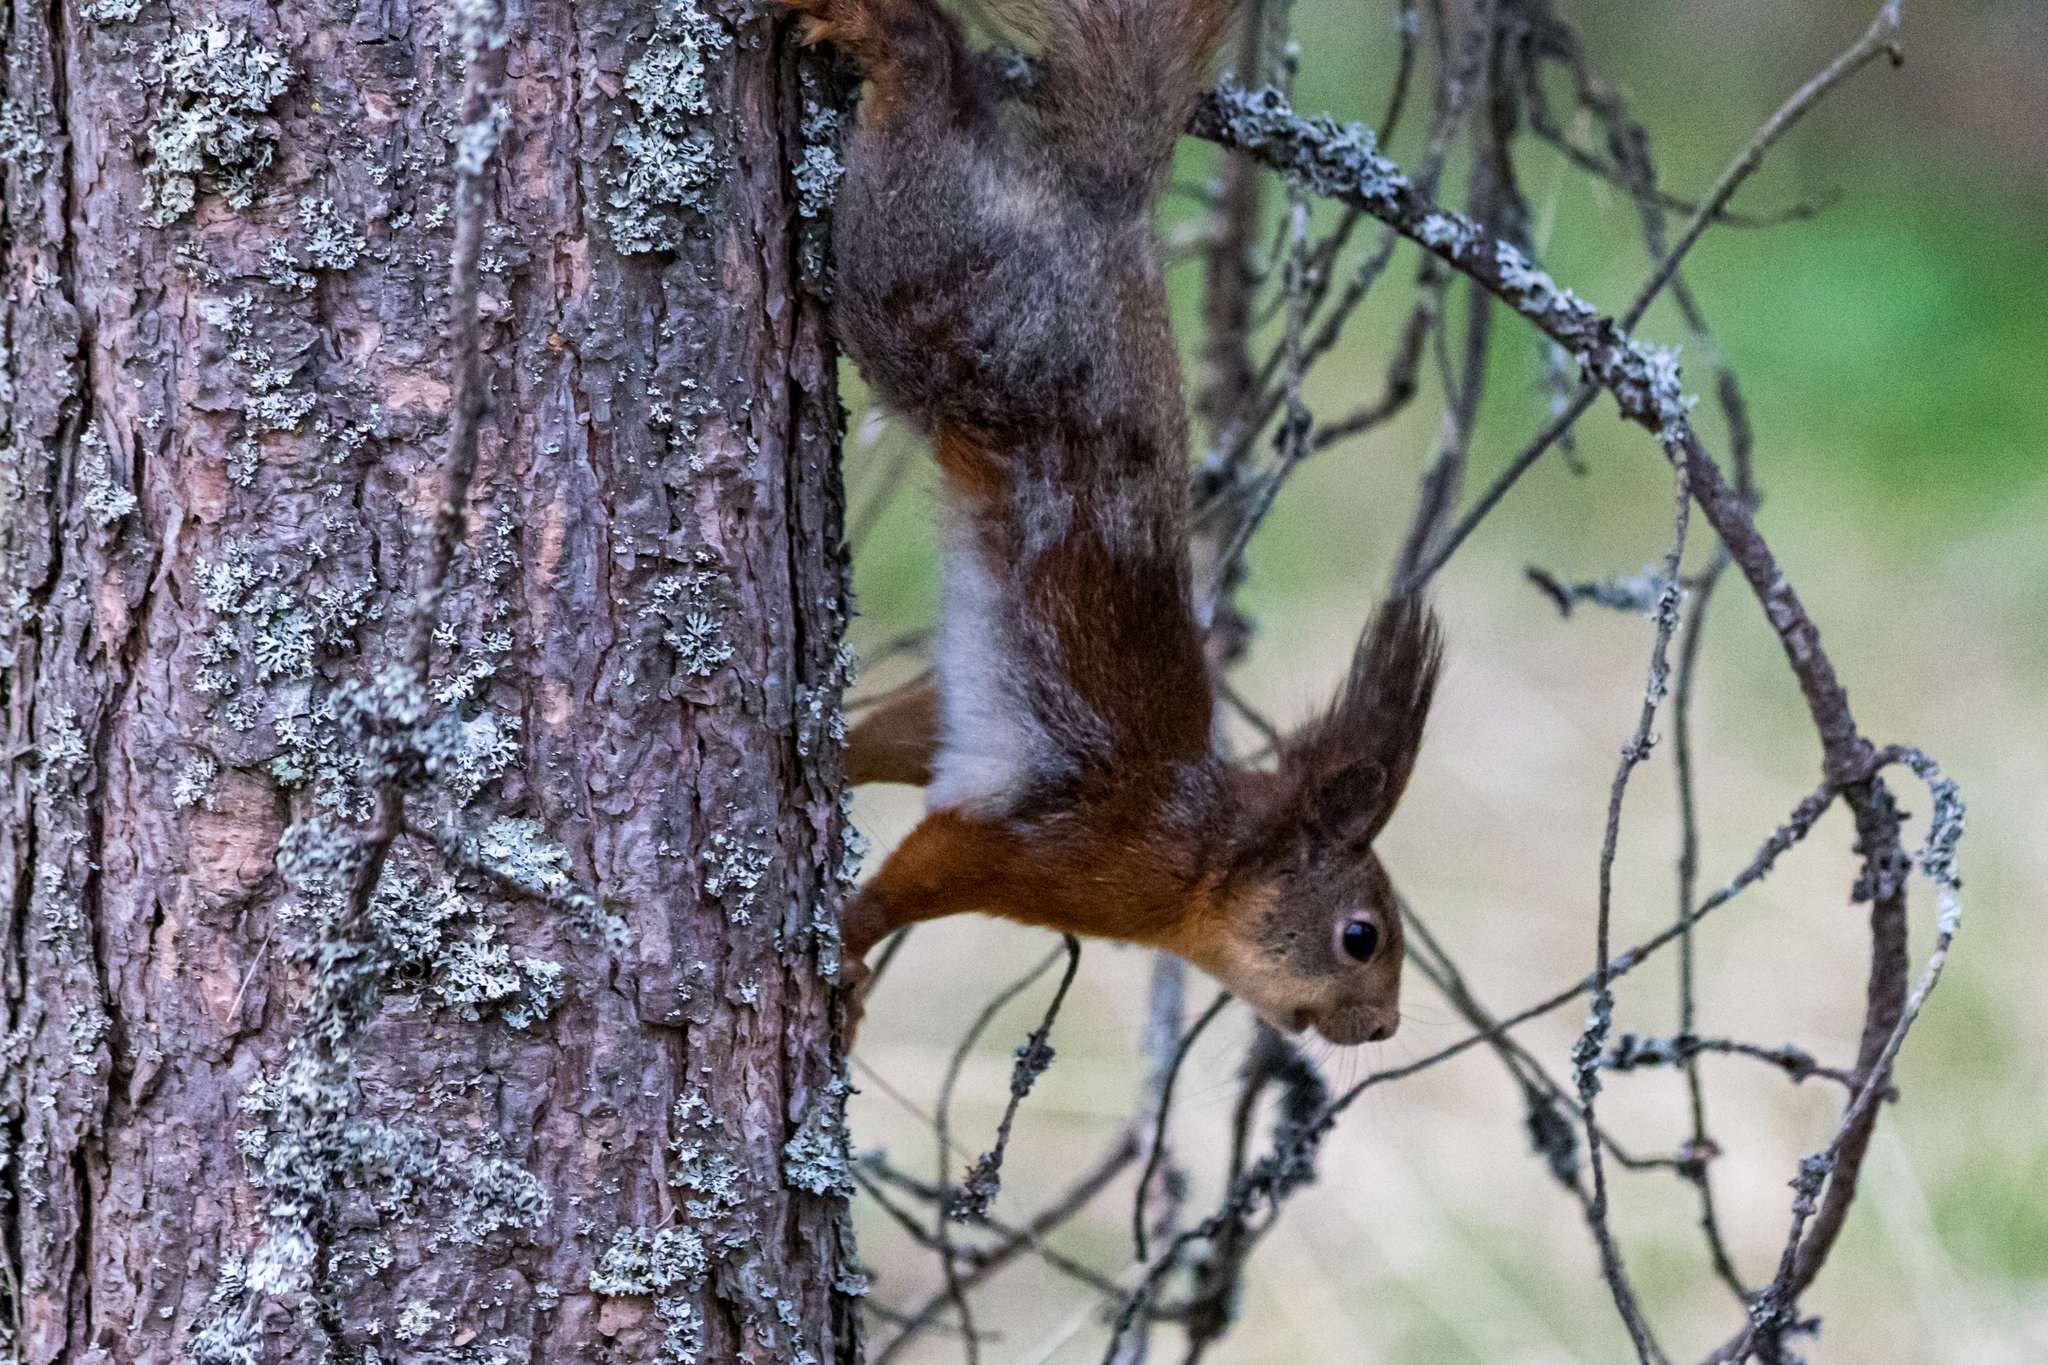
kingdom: Animalia
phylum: Chordata
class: Mammalia
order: Rodentia
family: Sciuridae
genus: Sciurus
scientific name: Sciurus vulgaris
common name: Eurasian red squirrel
